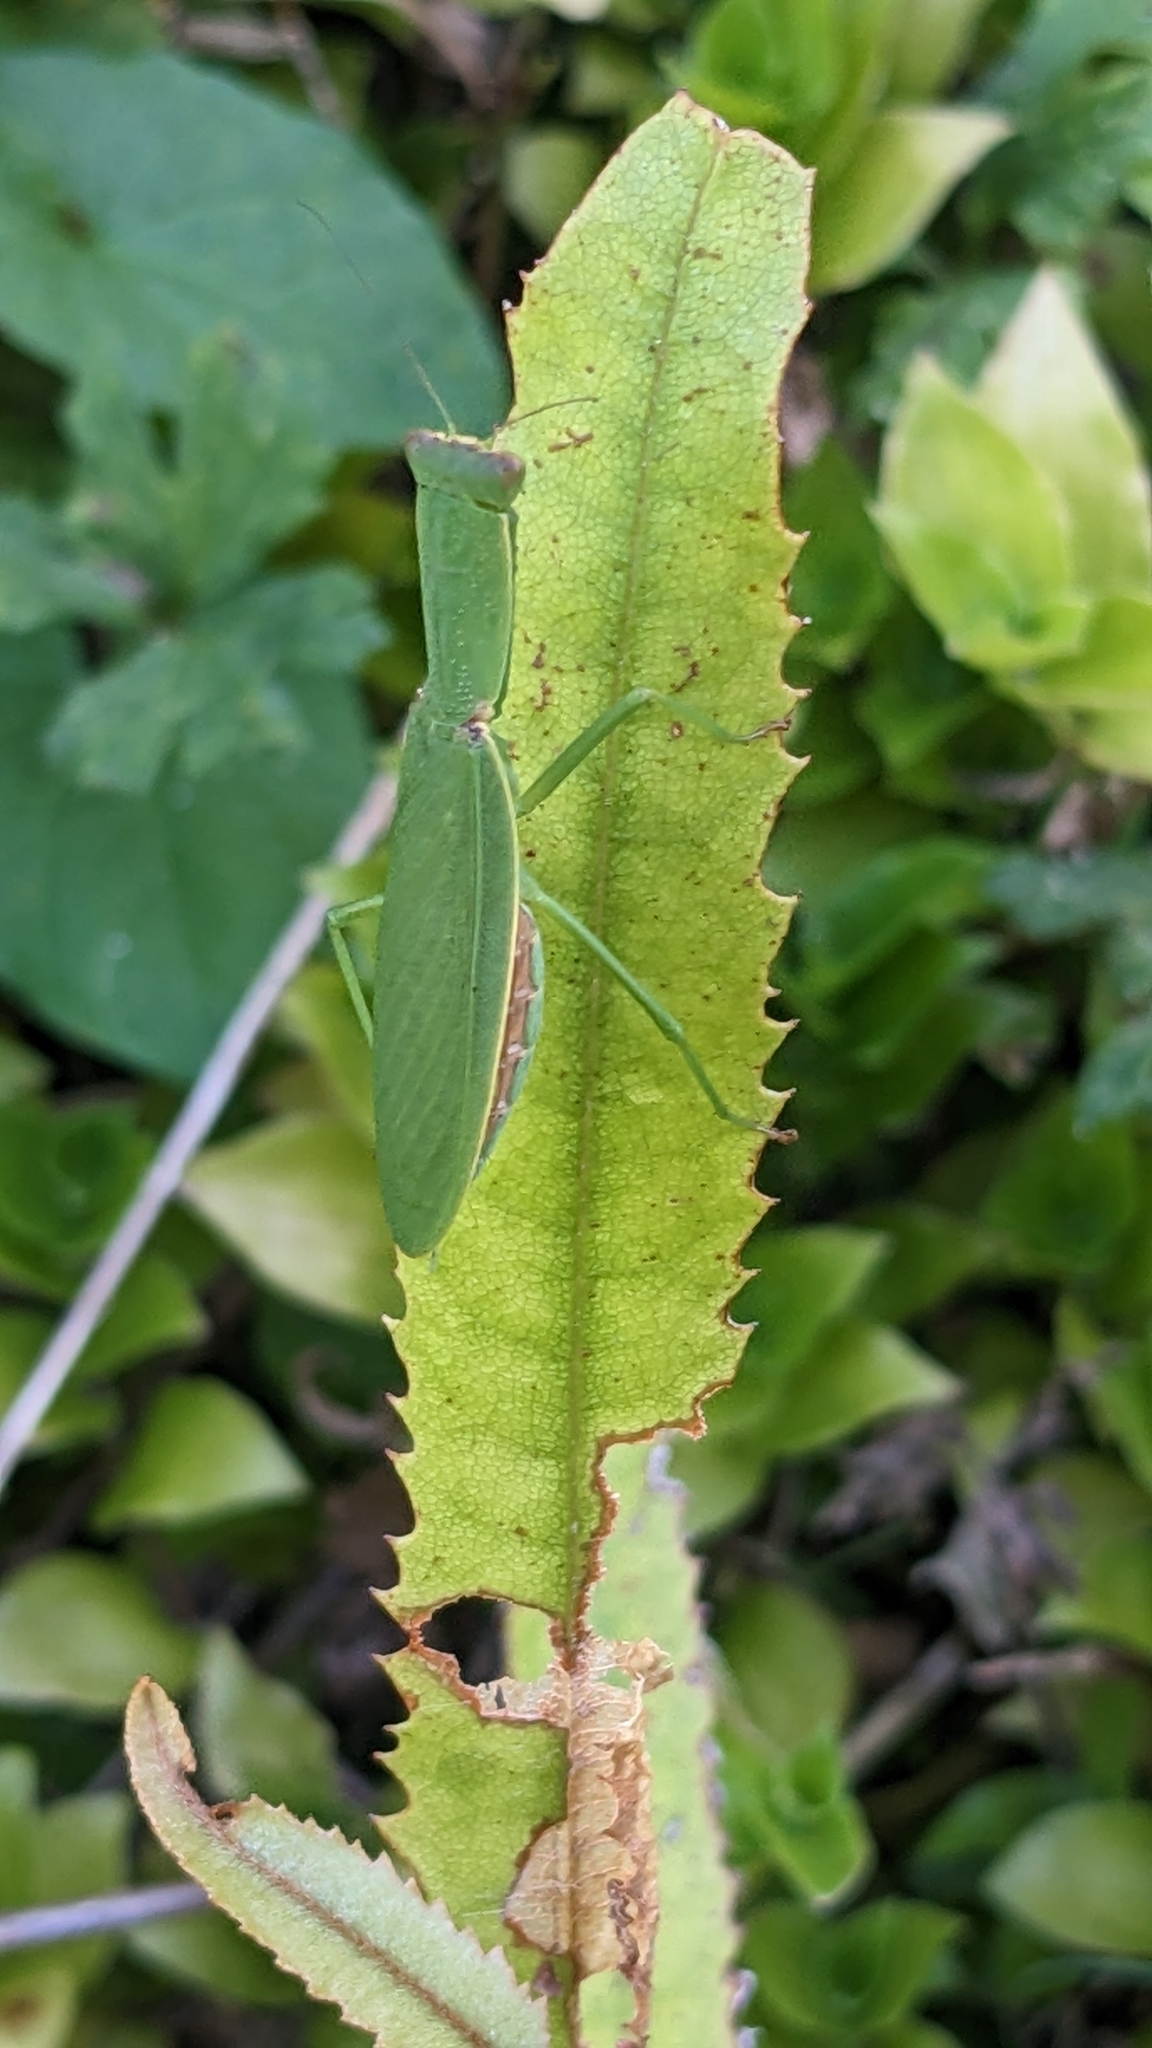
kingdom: Animalia
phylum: Arthropoda
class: Insecta
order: Mantodea
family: Mantidae
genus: Orthodera
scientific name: Orthodera novaezealandiae
